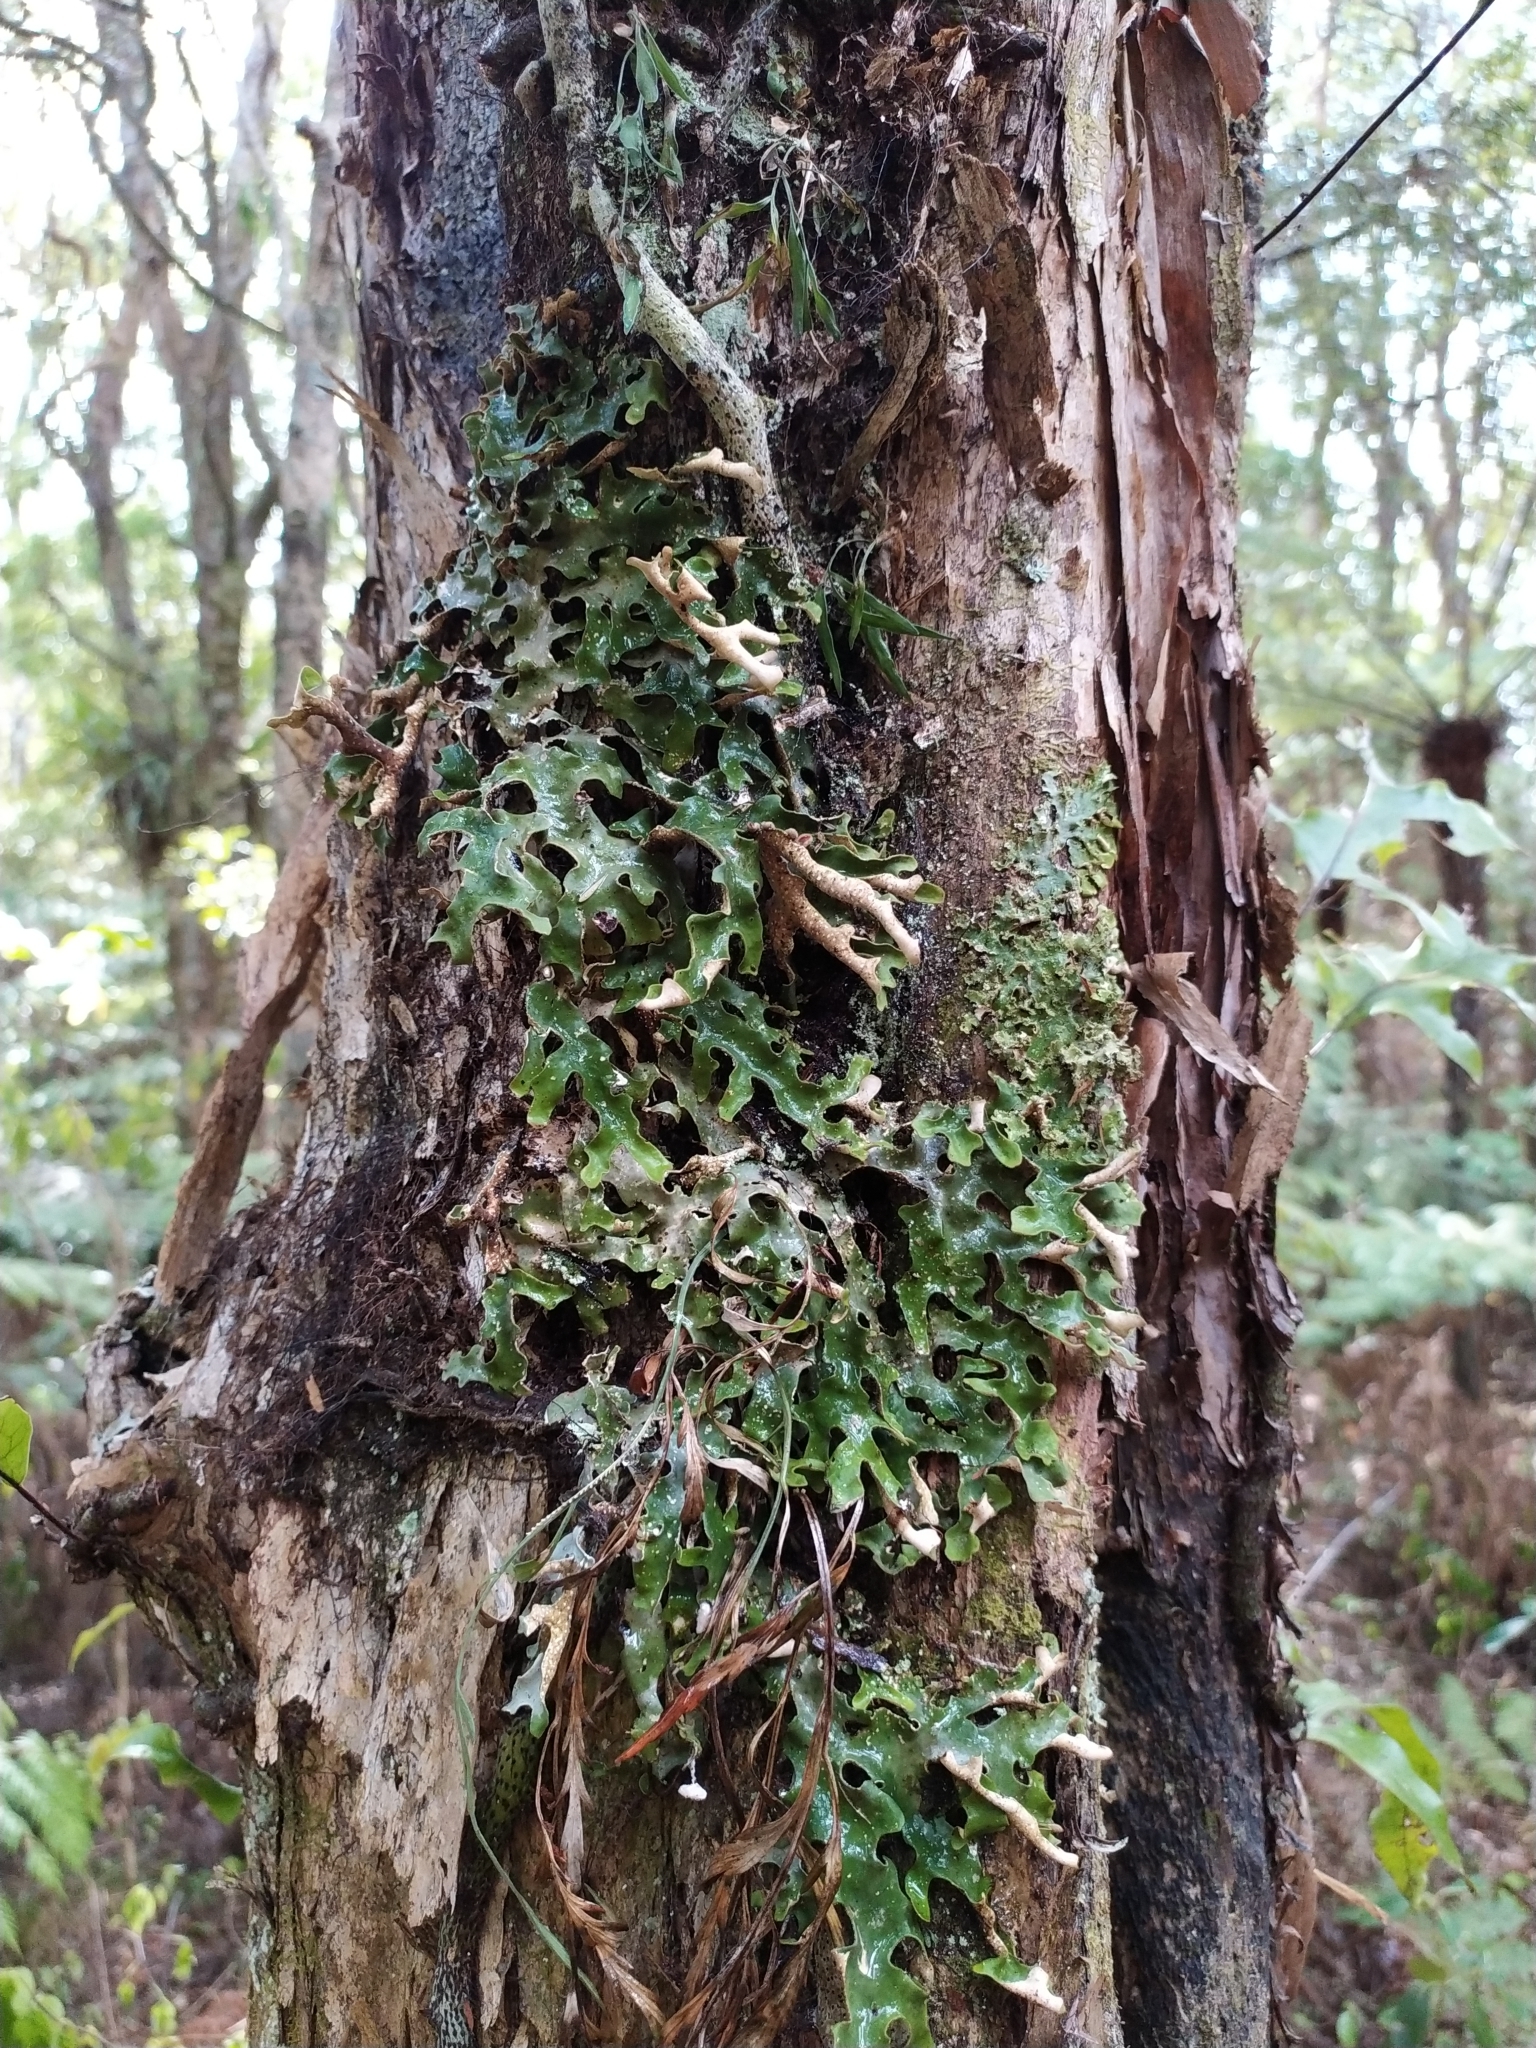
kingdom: Fungi
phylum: Ascomycota
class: Lecanoromycetes
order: Peltigerales
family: Lobariaceae
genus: Pseudocyphellaria
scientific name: Pseudocyphellaria lividofusca
